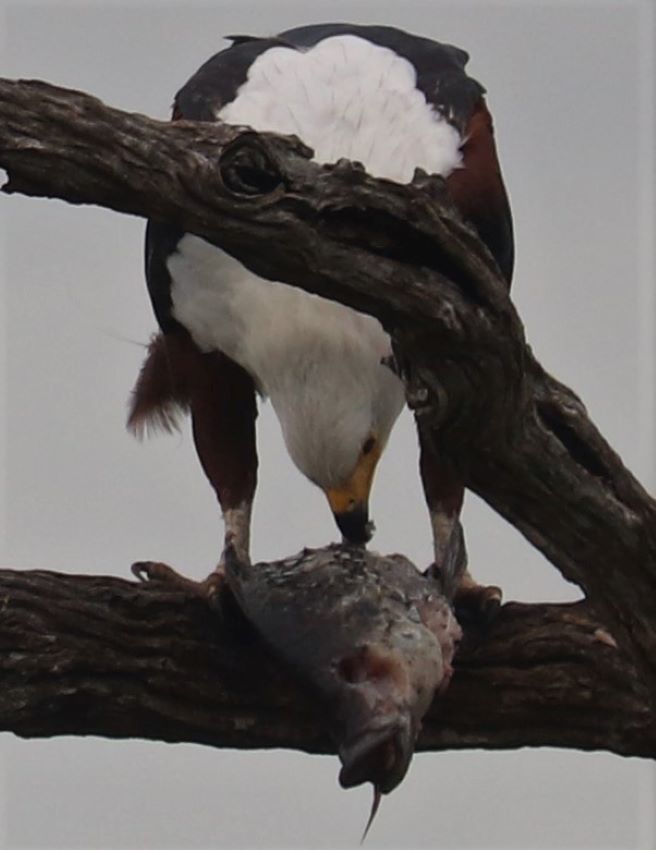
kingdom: Animalia
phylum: Chordata
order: Perciformes
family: Cichlidae
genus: Oreochromis
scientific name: Oreochromis mossambicus
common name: Mozambique tilapia
